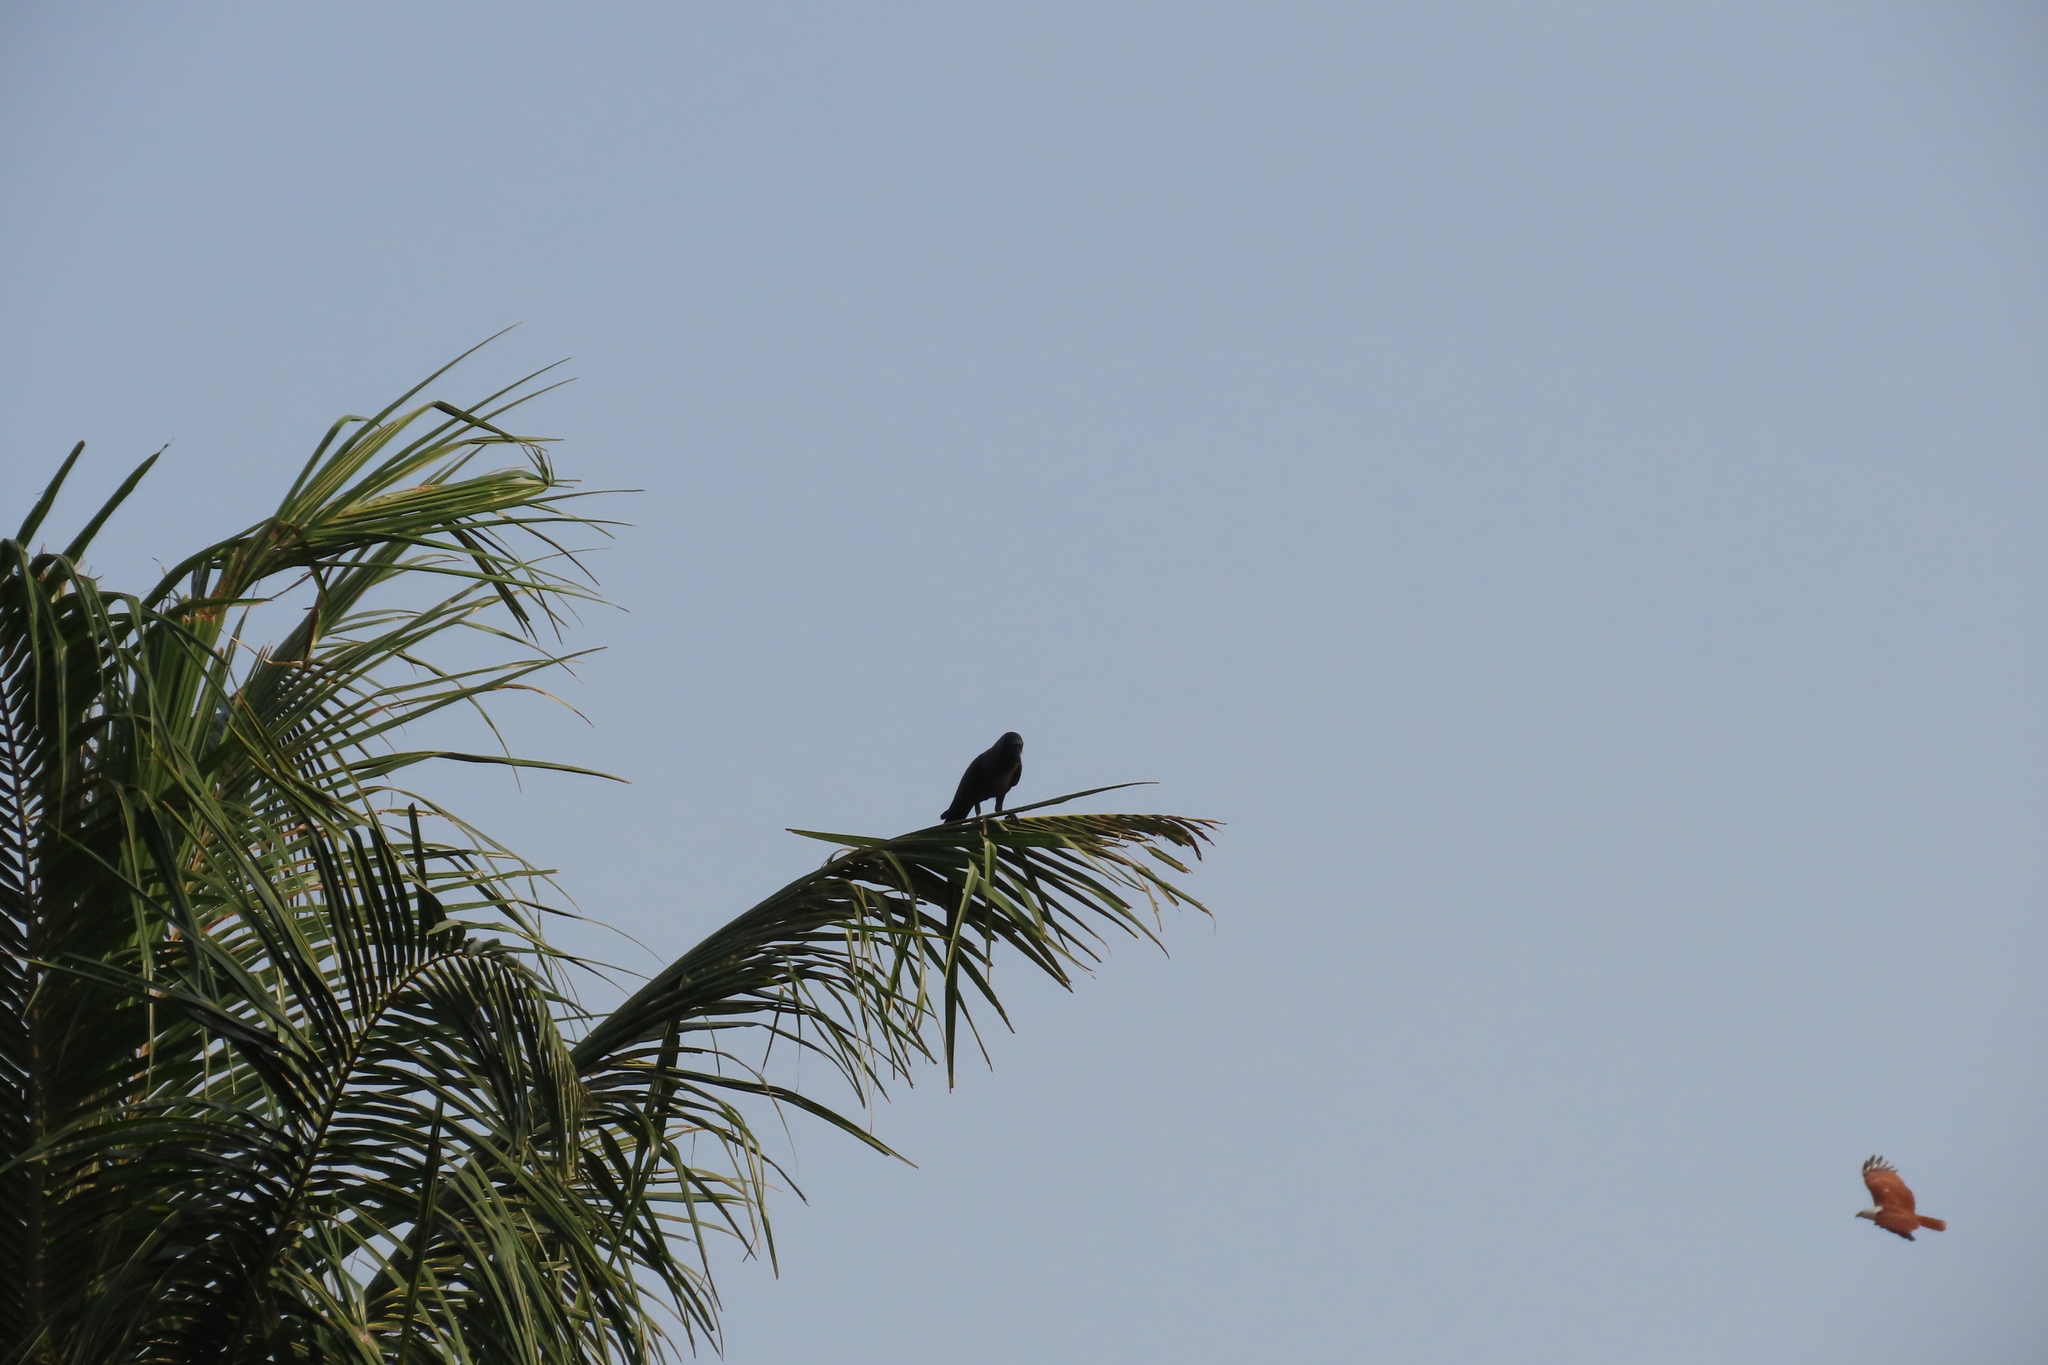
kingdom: Animalia
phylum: Chordata
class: Aves
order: Passeriformes
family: Corvidae
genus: Corvus
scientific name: Corvus splendens
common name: House crow
